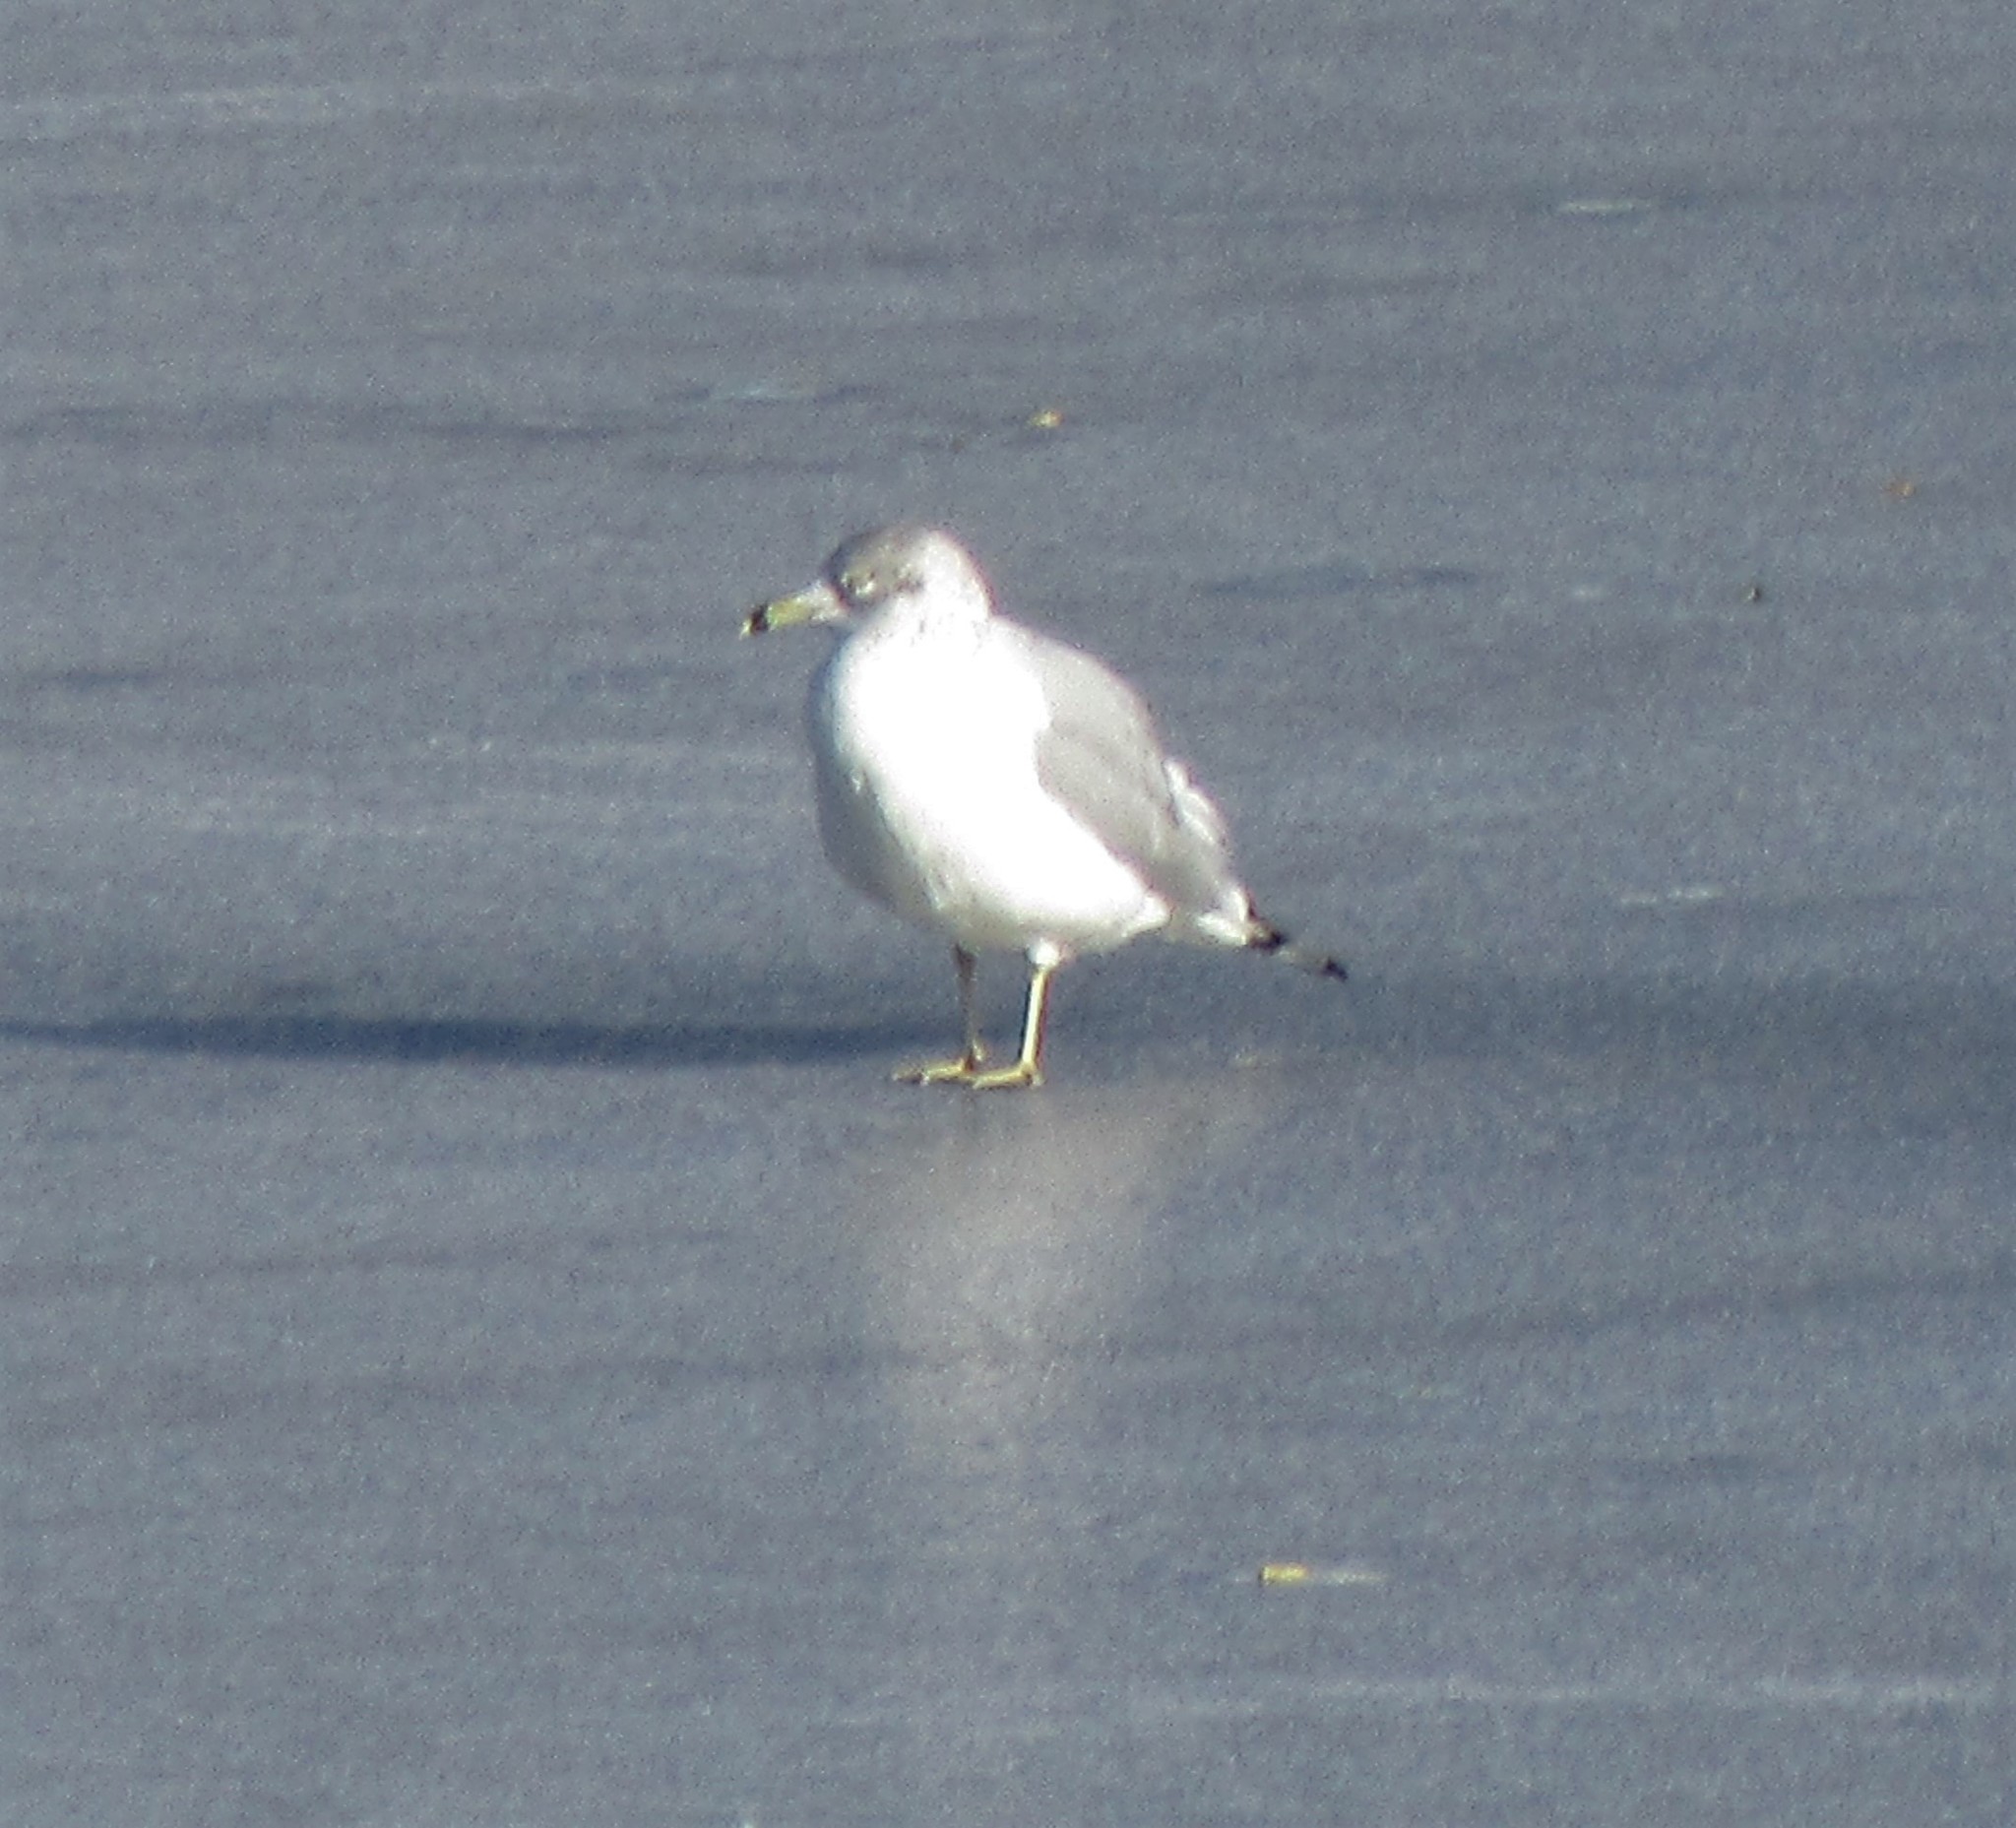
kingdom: Animalia
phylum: Chordata
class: Aves
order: Charadriiformes
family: Laridae
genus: Larus
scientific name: Larus delawarensis
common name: Ring-billed gull
